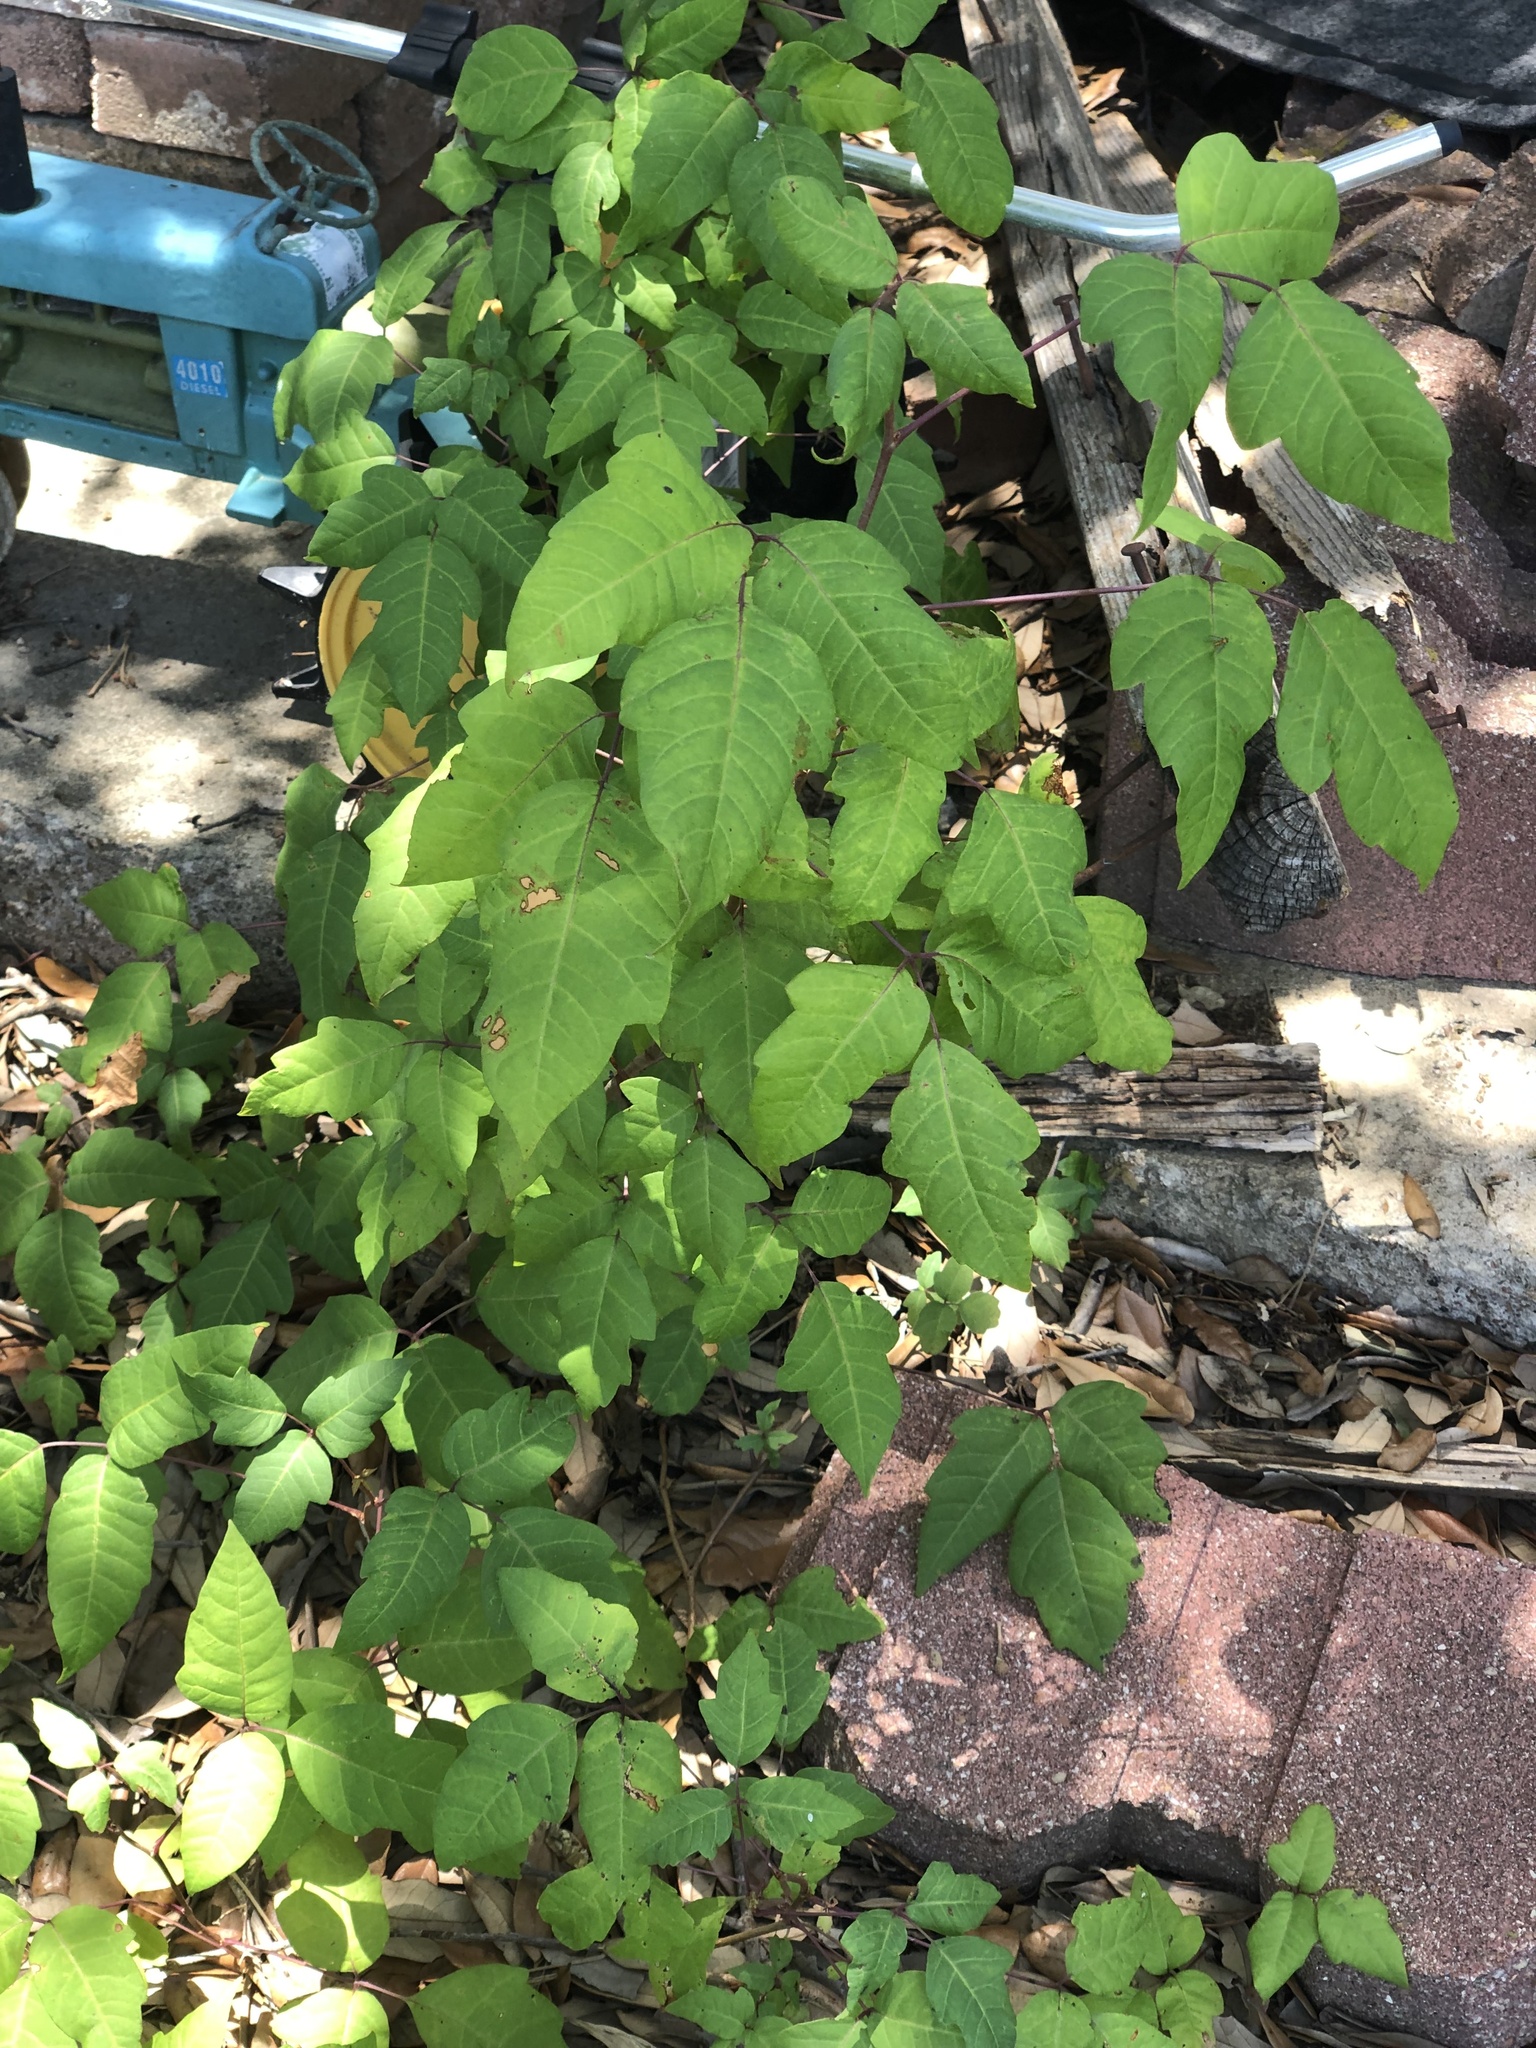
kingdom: Plantae
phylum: Tracheophyta
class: Magnoliopsida
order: Sapindales
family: Anacardiaceae
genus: Toxicodendron
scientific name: Toxicodendron radicans
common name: Poison ivy
